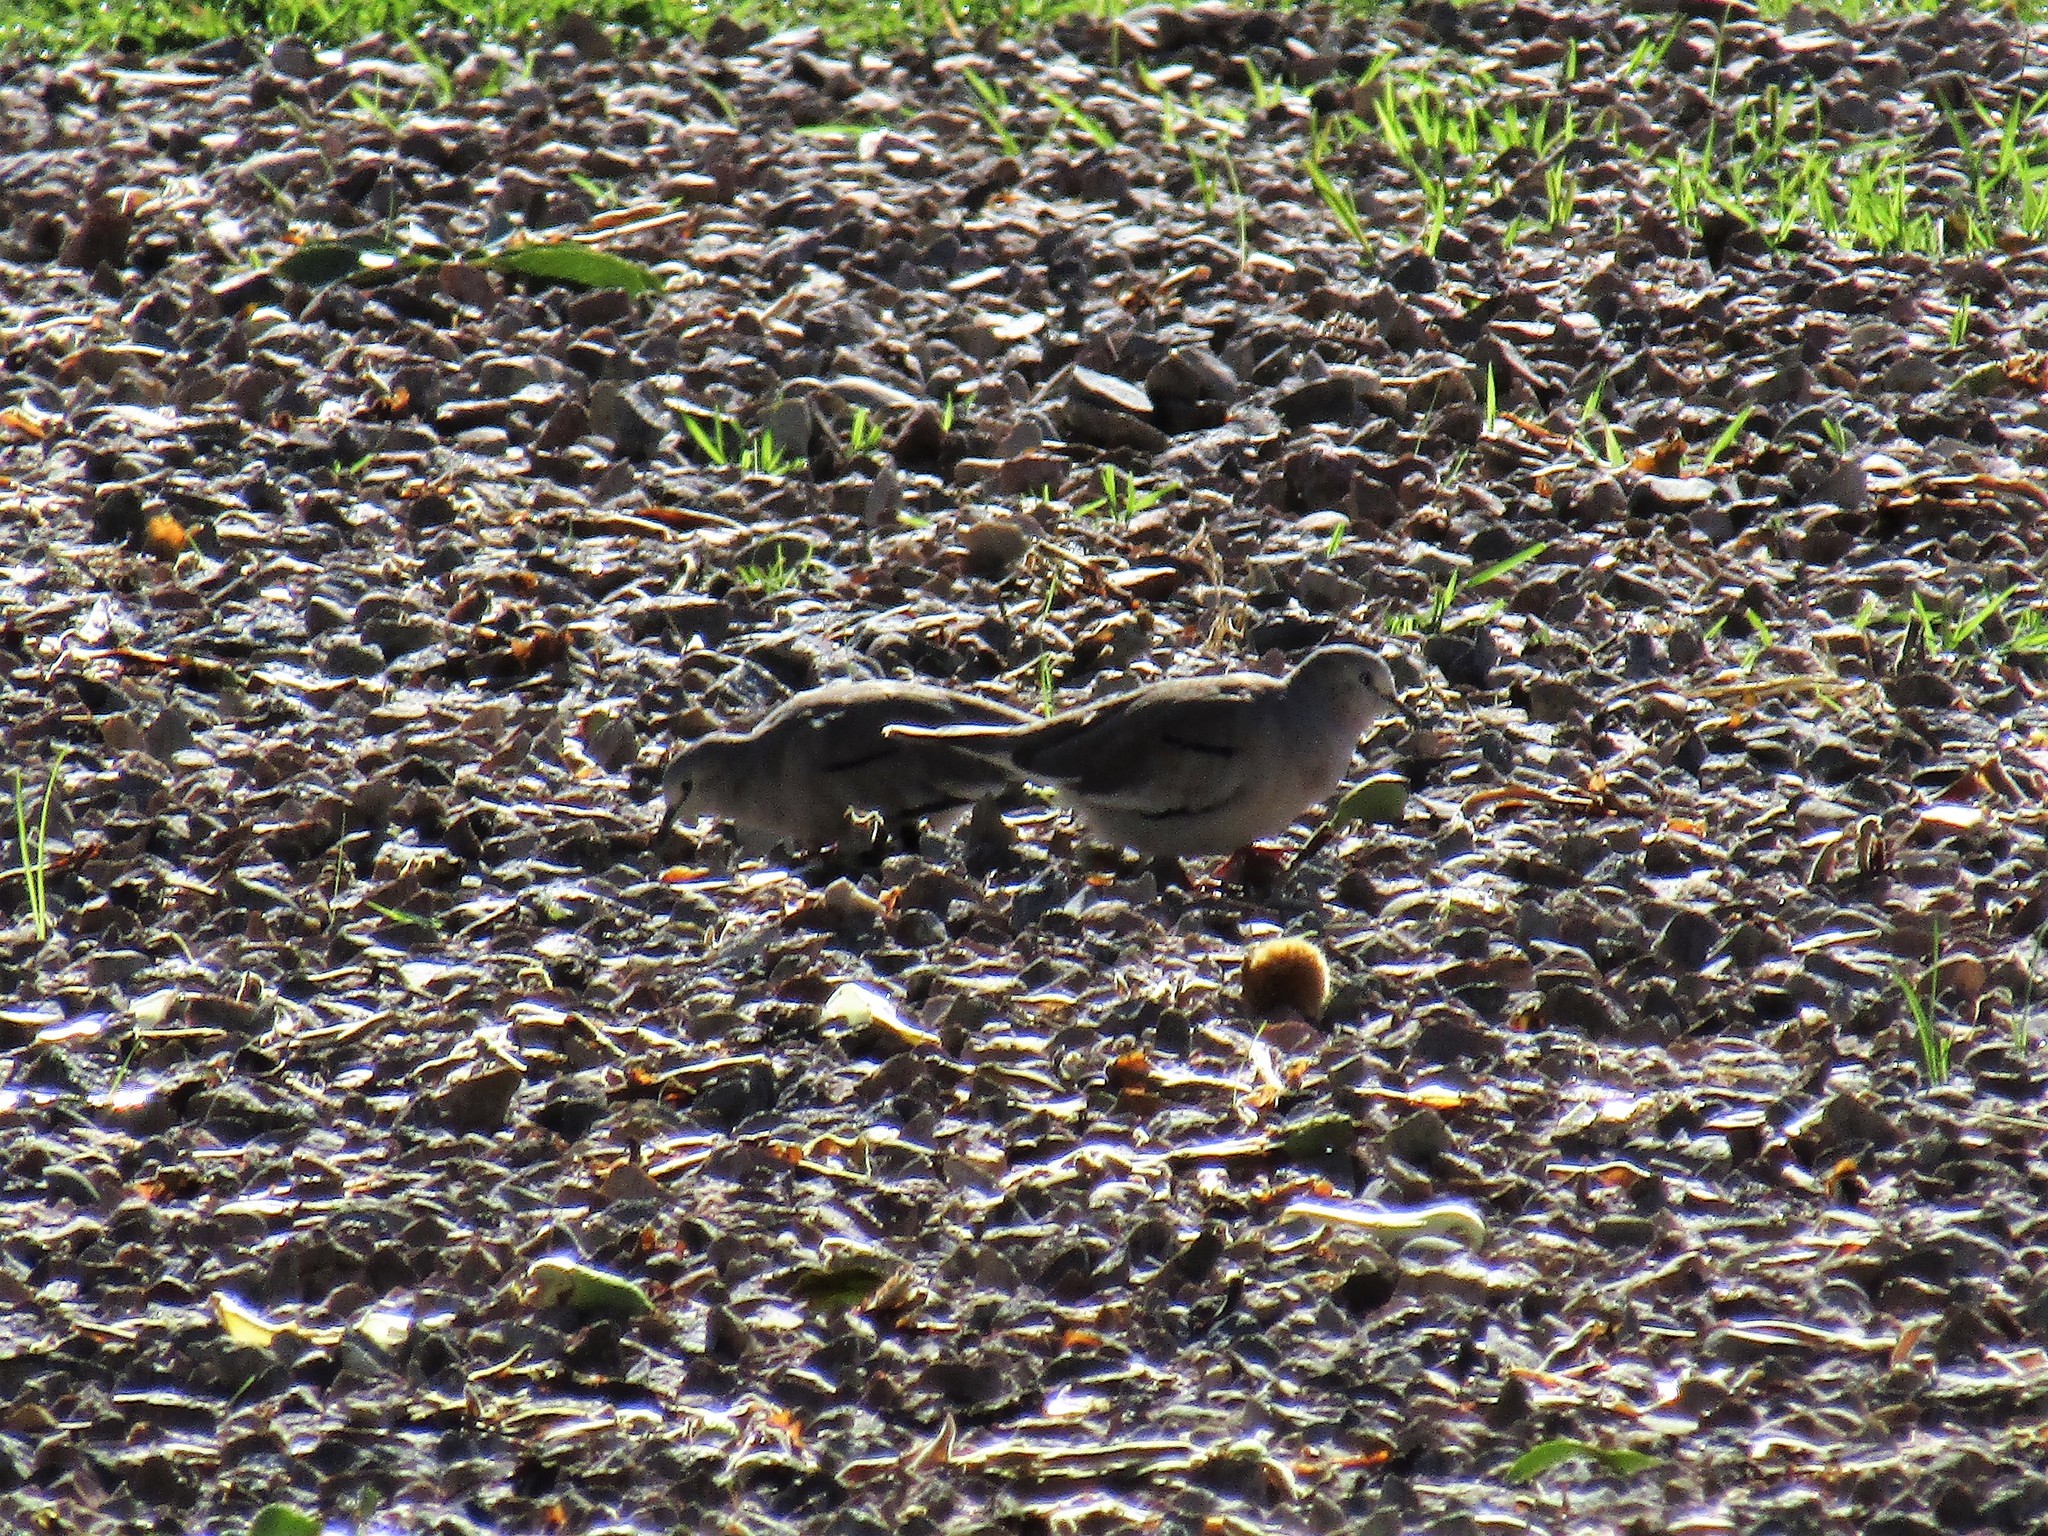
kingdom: Animalia
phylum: Chordata
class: Aves
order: Columbiformes
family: Columbidae
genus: Columbina
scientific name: Columbina picui
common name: Picui ground dove
